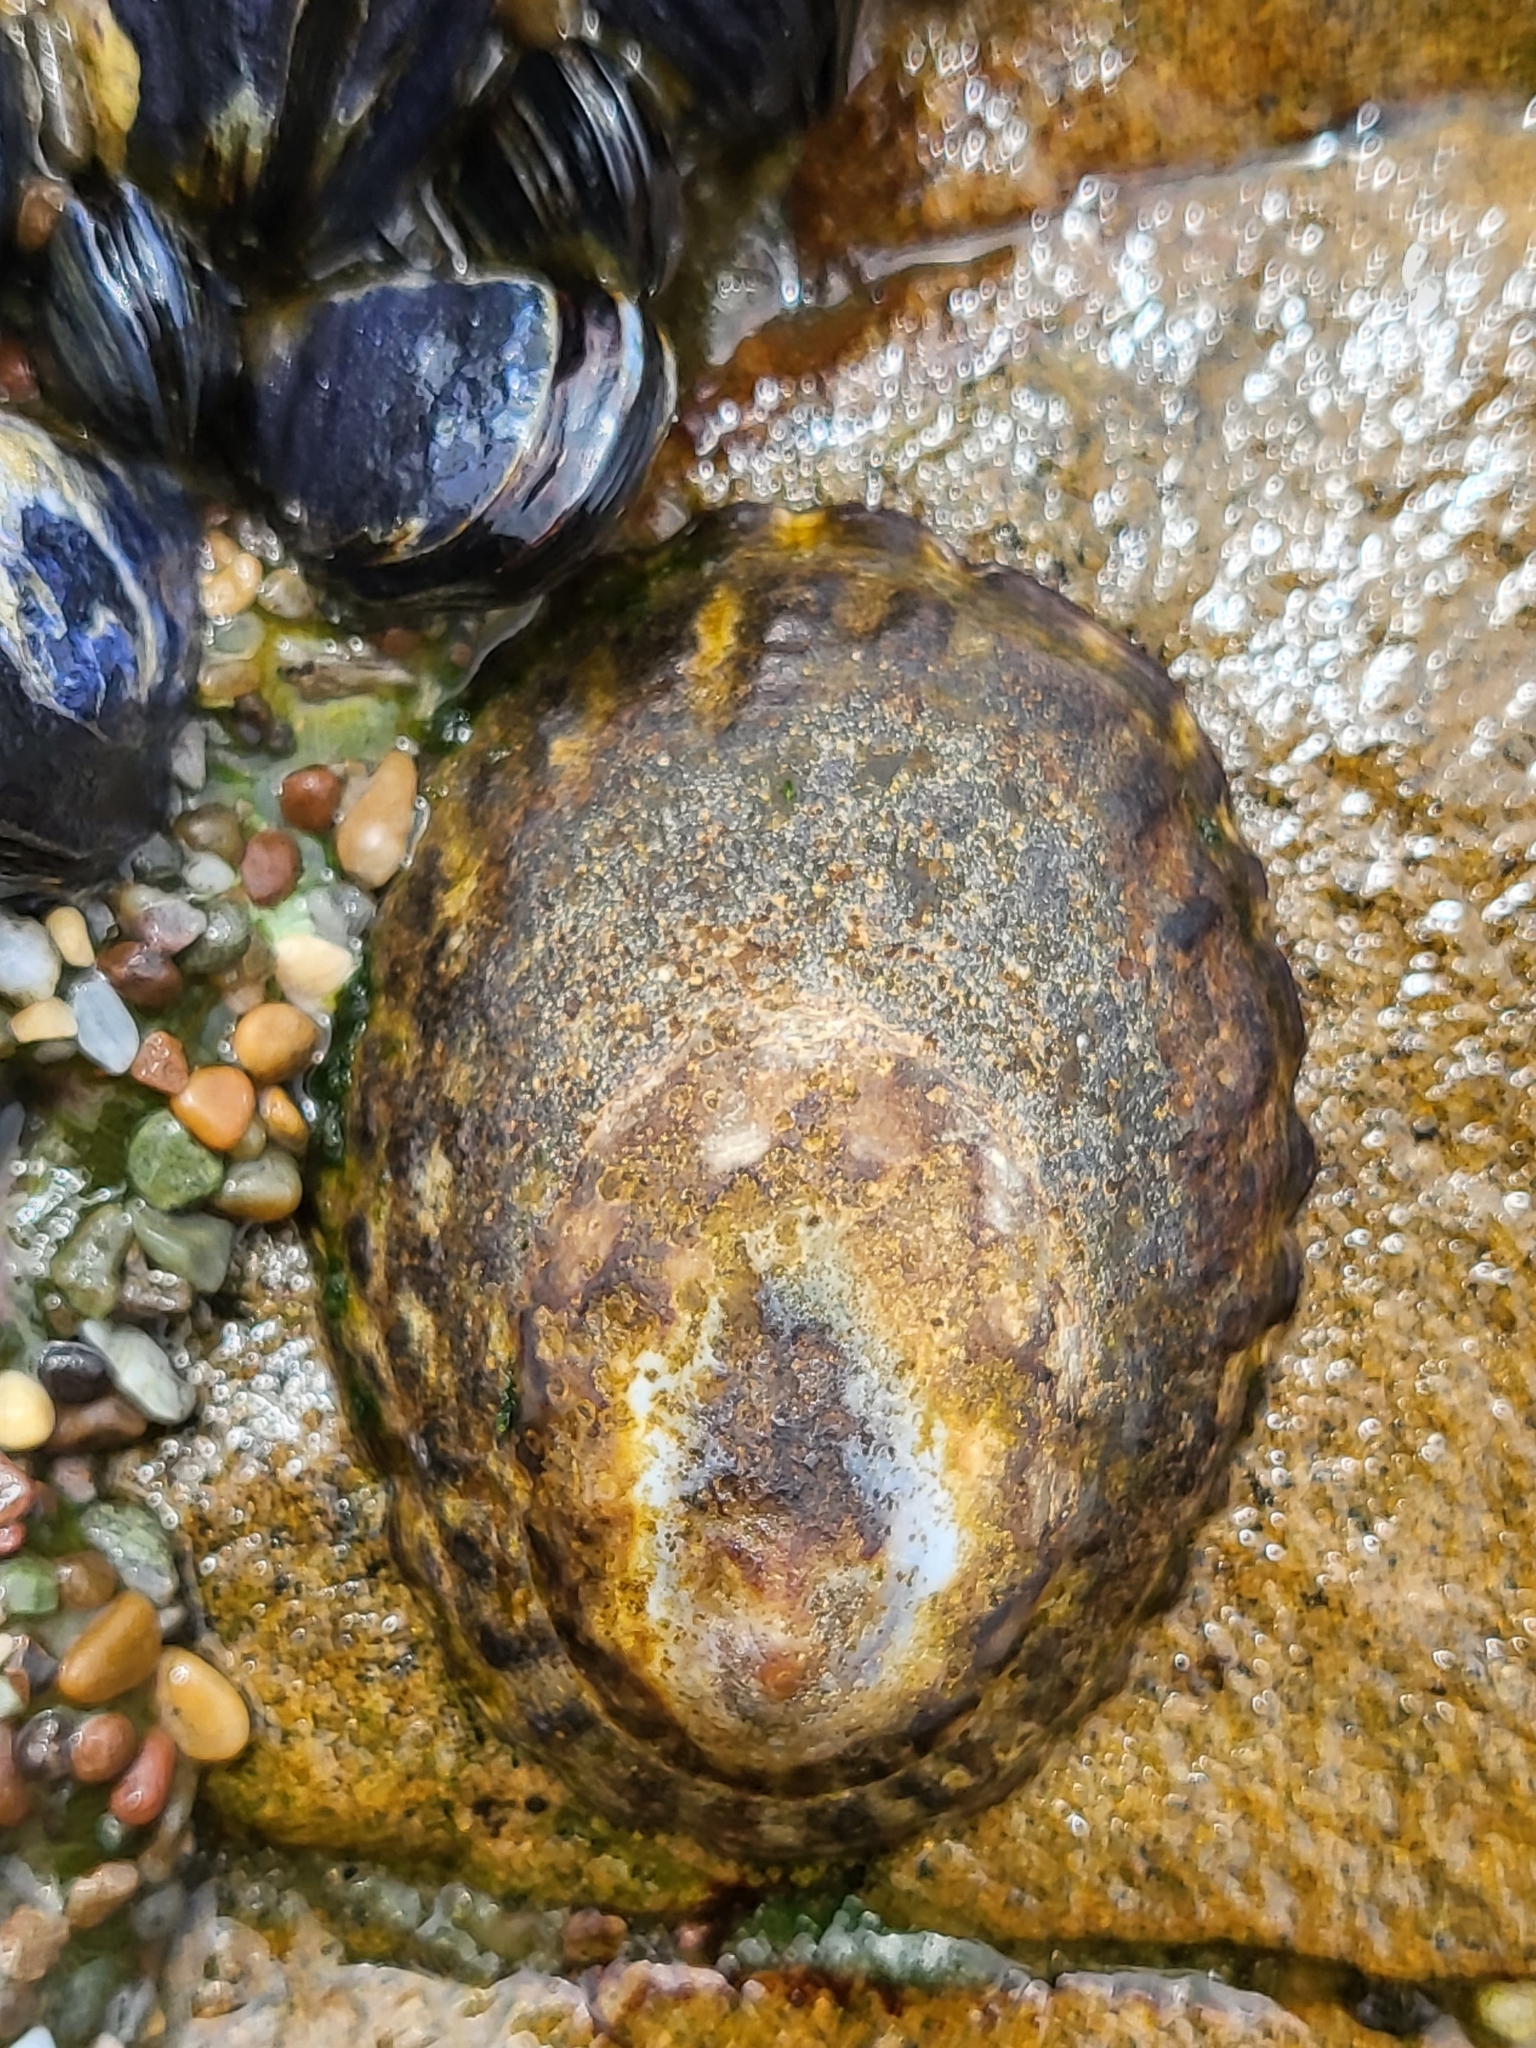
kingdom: Animalia
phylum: Mollusca
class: Gastropoda
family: Lottiidae
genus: Lottia
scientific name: Lottia gigantea
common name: Owl limpet
